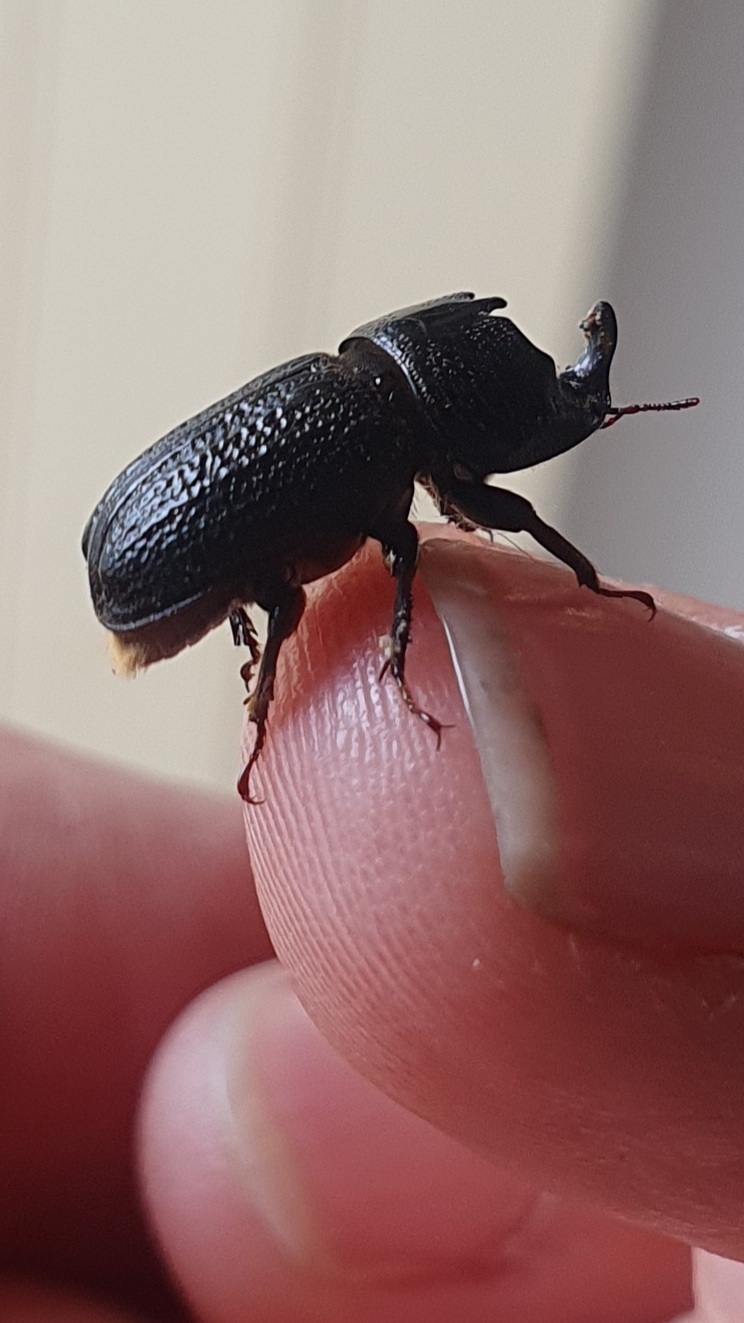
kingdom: Animalia
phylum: Arthropoda
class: Insecta
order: Coleoptera
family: Lucanidae
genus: Sinodendron
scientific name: Sinodendron cylindricum
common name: Rhinoceros beetle
